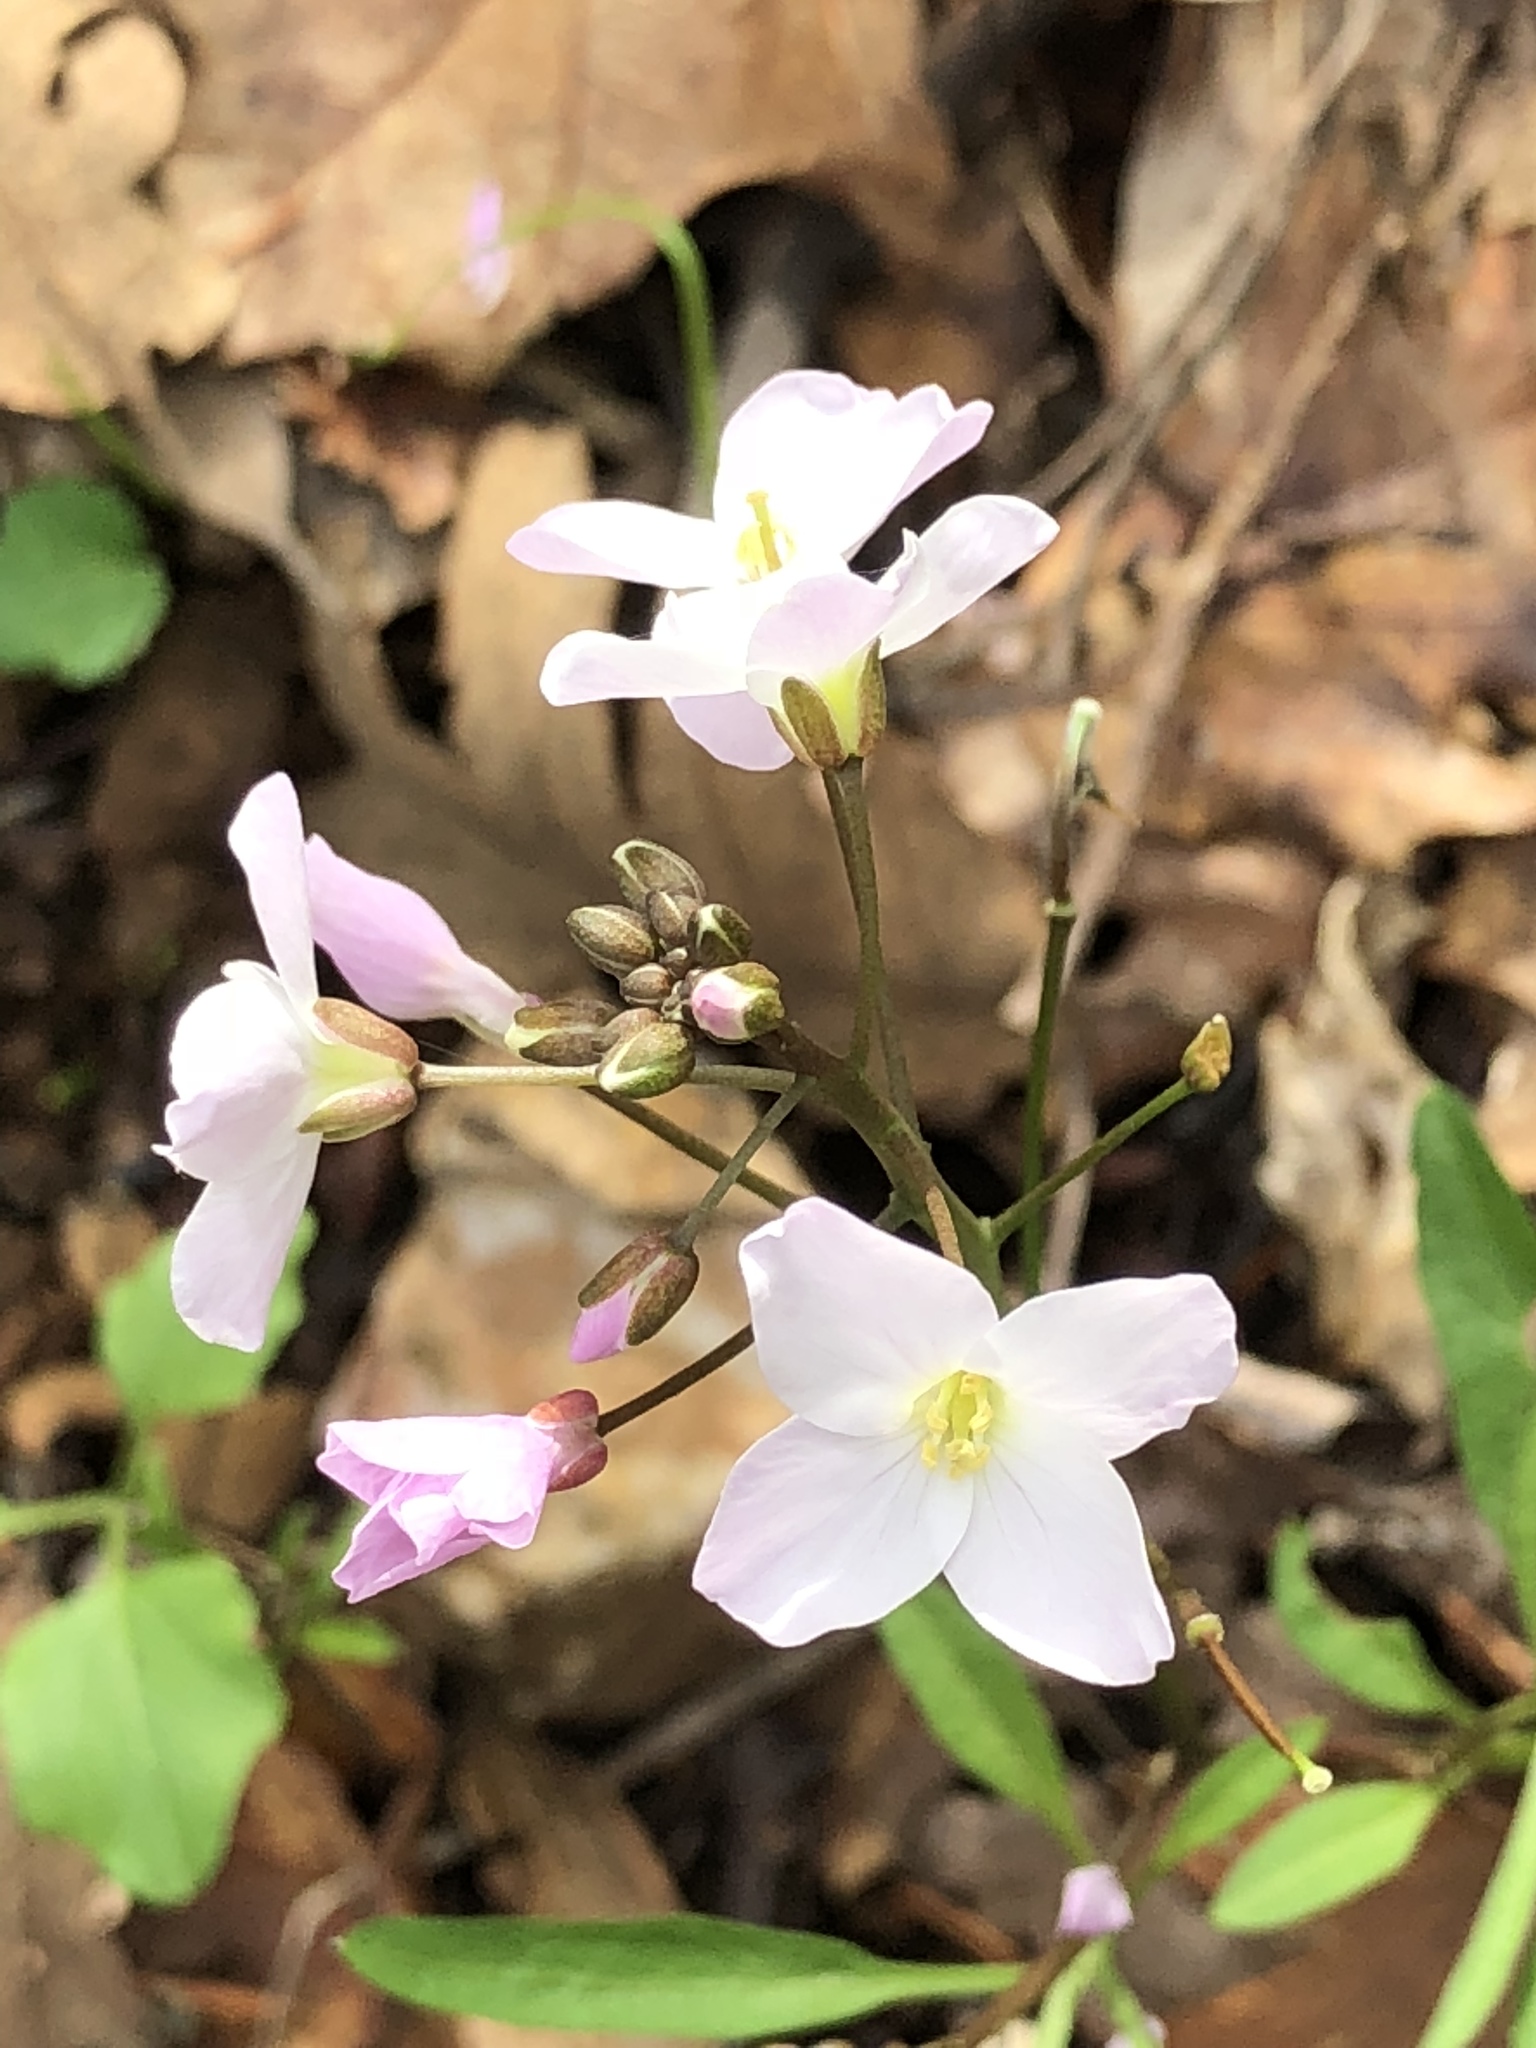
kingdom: Plantae
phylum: Tracheophyta
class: Magnoliopsida
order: Brassicales
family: Brassicaceae
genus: Cardamine
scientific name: Cardamine californica
